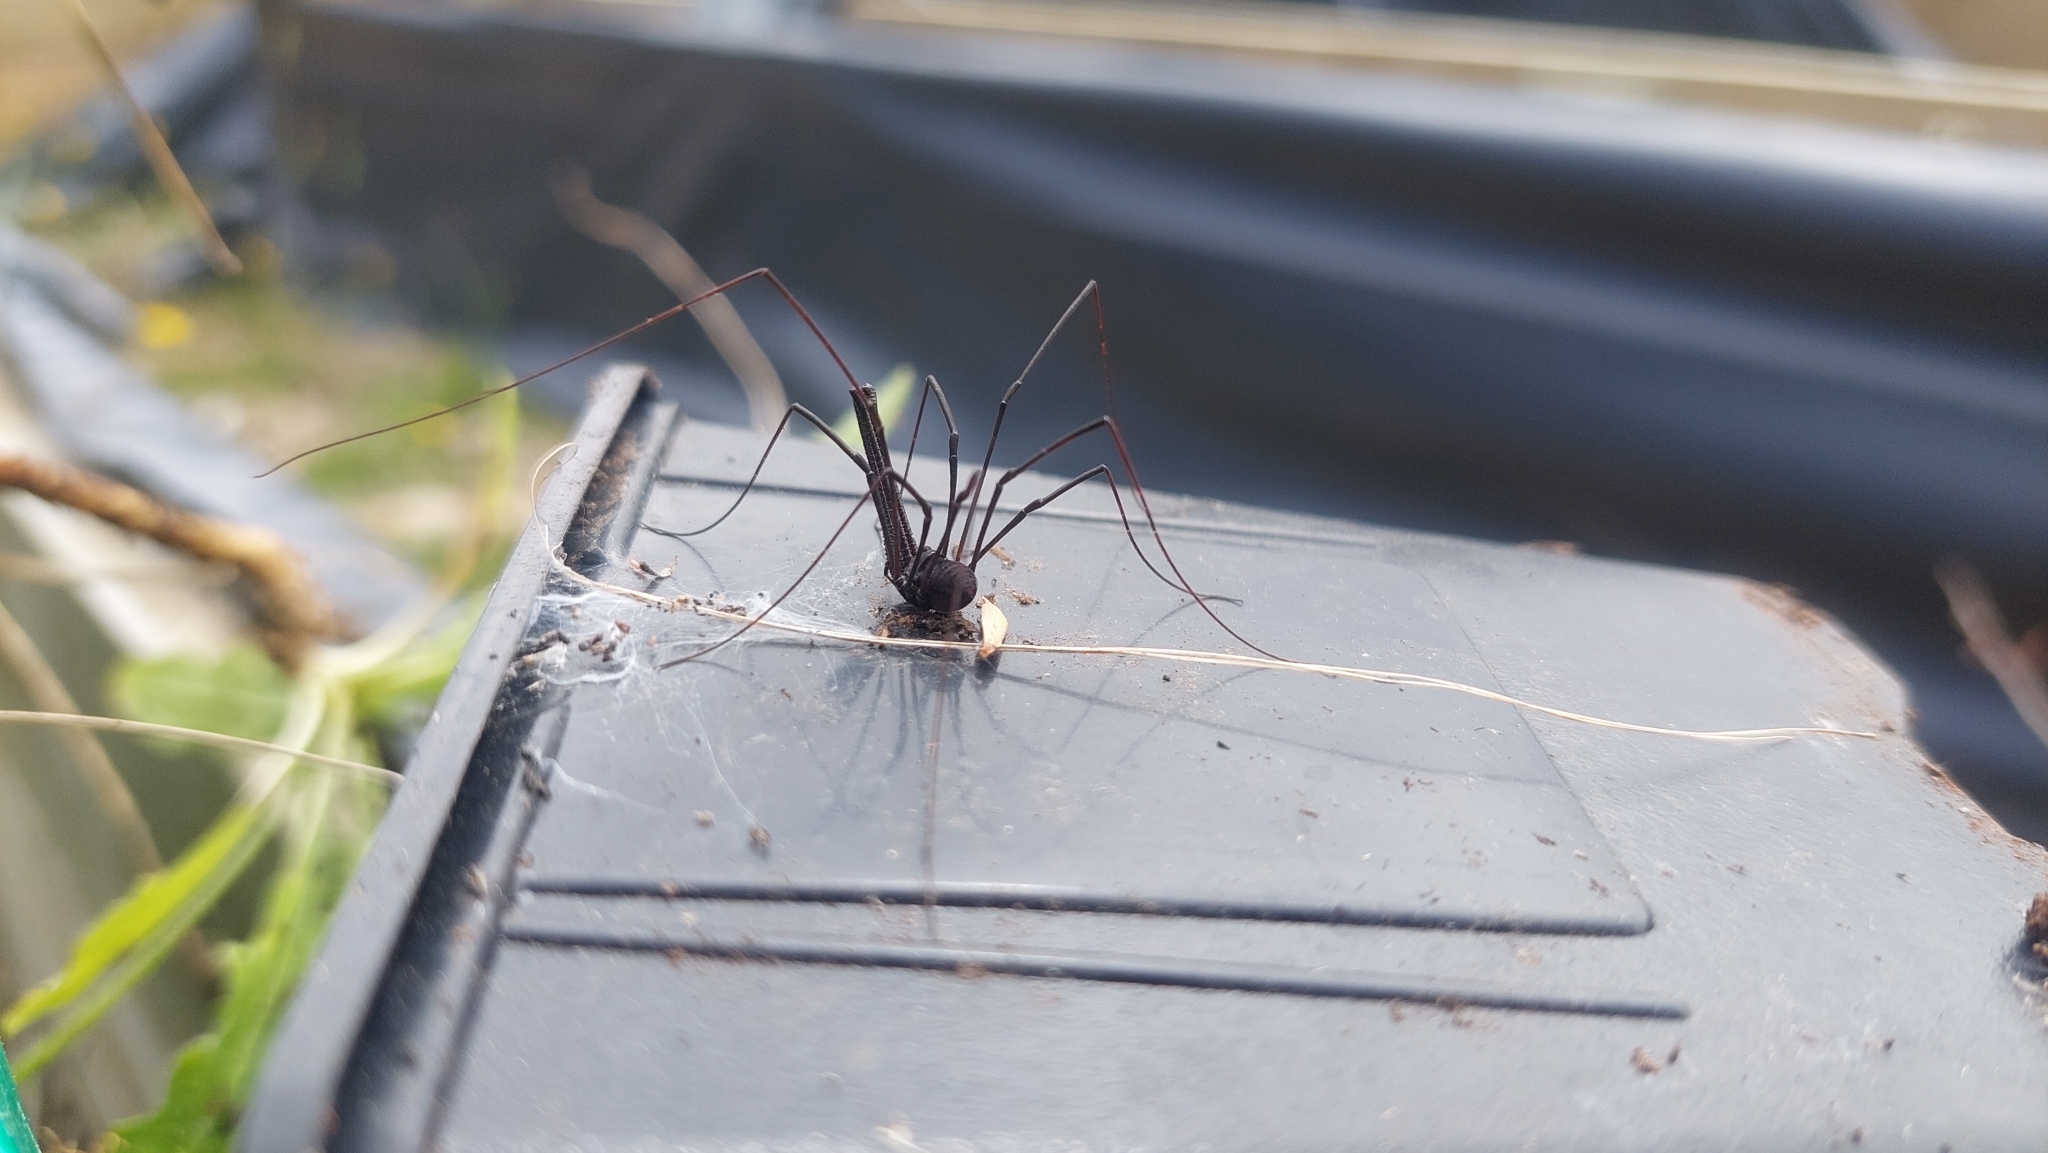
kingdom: Animalia
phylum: Arthropoda
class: Arachnida
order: Opiliones
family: Neopilionidae
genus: Pantopsalis
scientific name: Pantopsalis albipalpis
